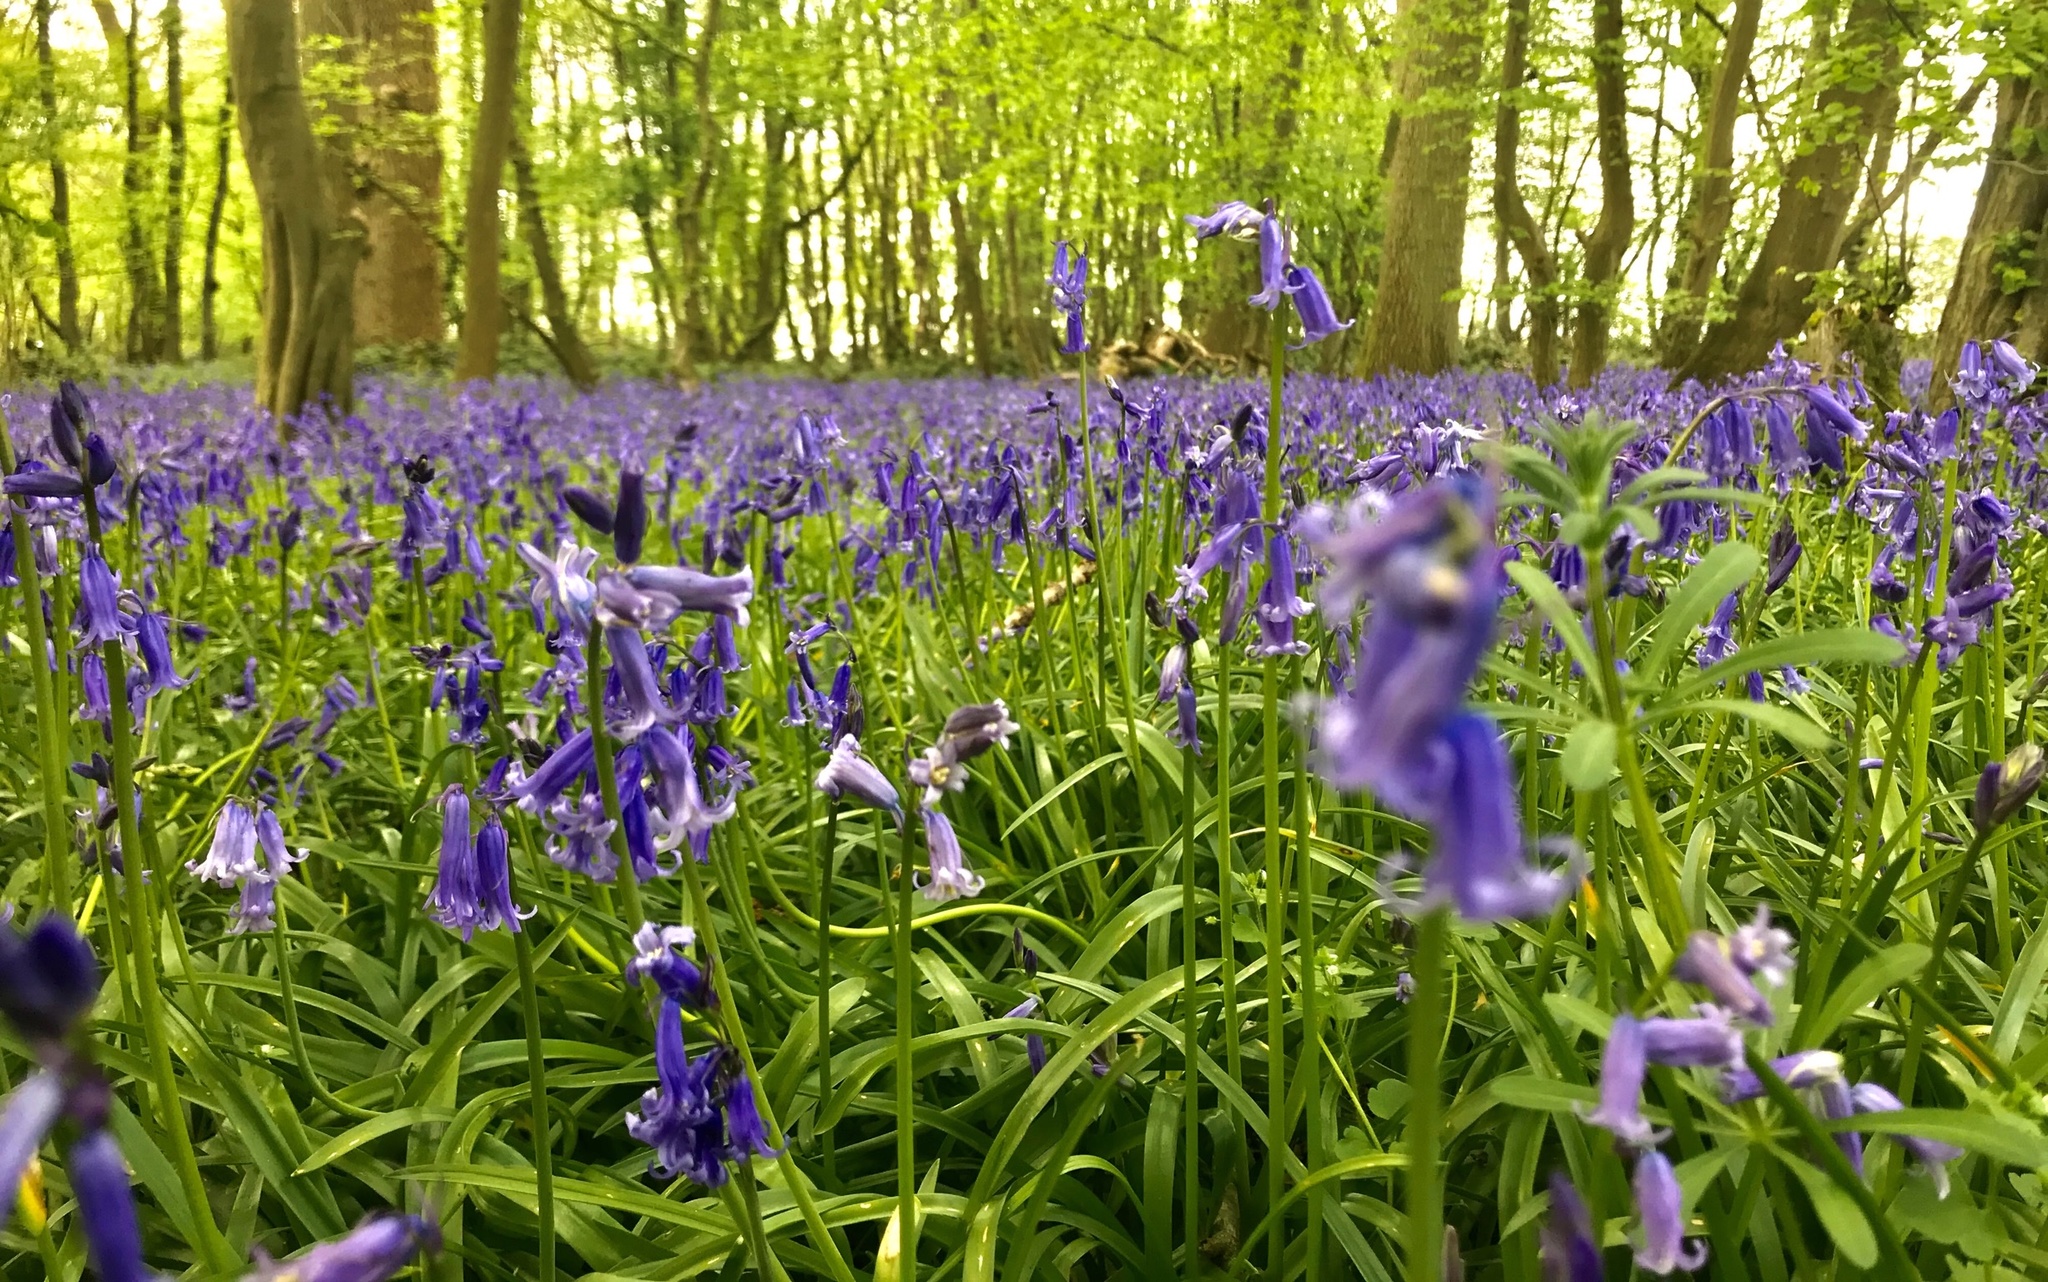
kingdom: Plantae
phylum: Tracheophyta
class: Liliopsida
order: Asparagales
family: Asparagaceae
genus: Hyacinthoides
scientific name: Hyacinthoides non-scripta
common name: Bluebell
